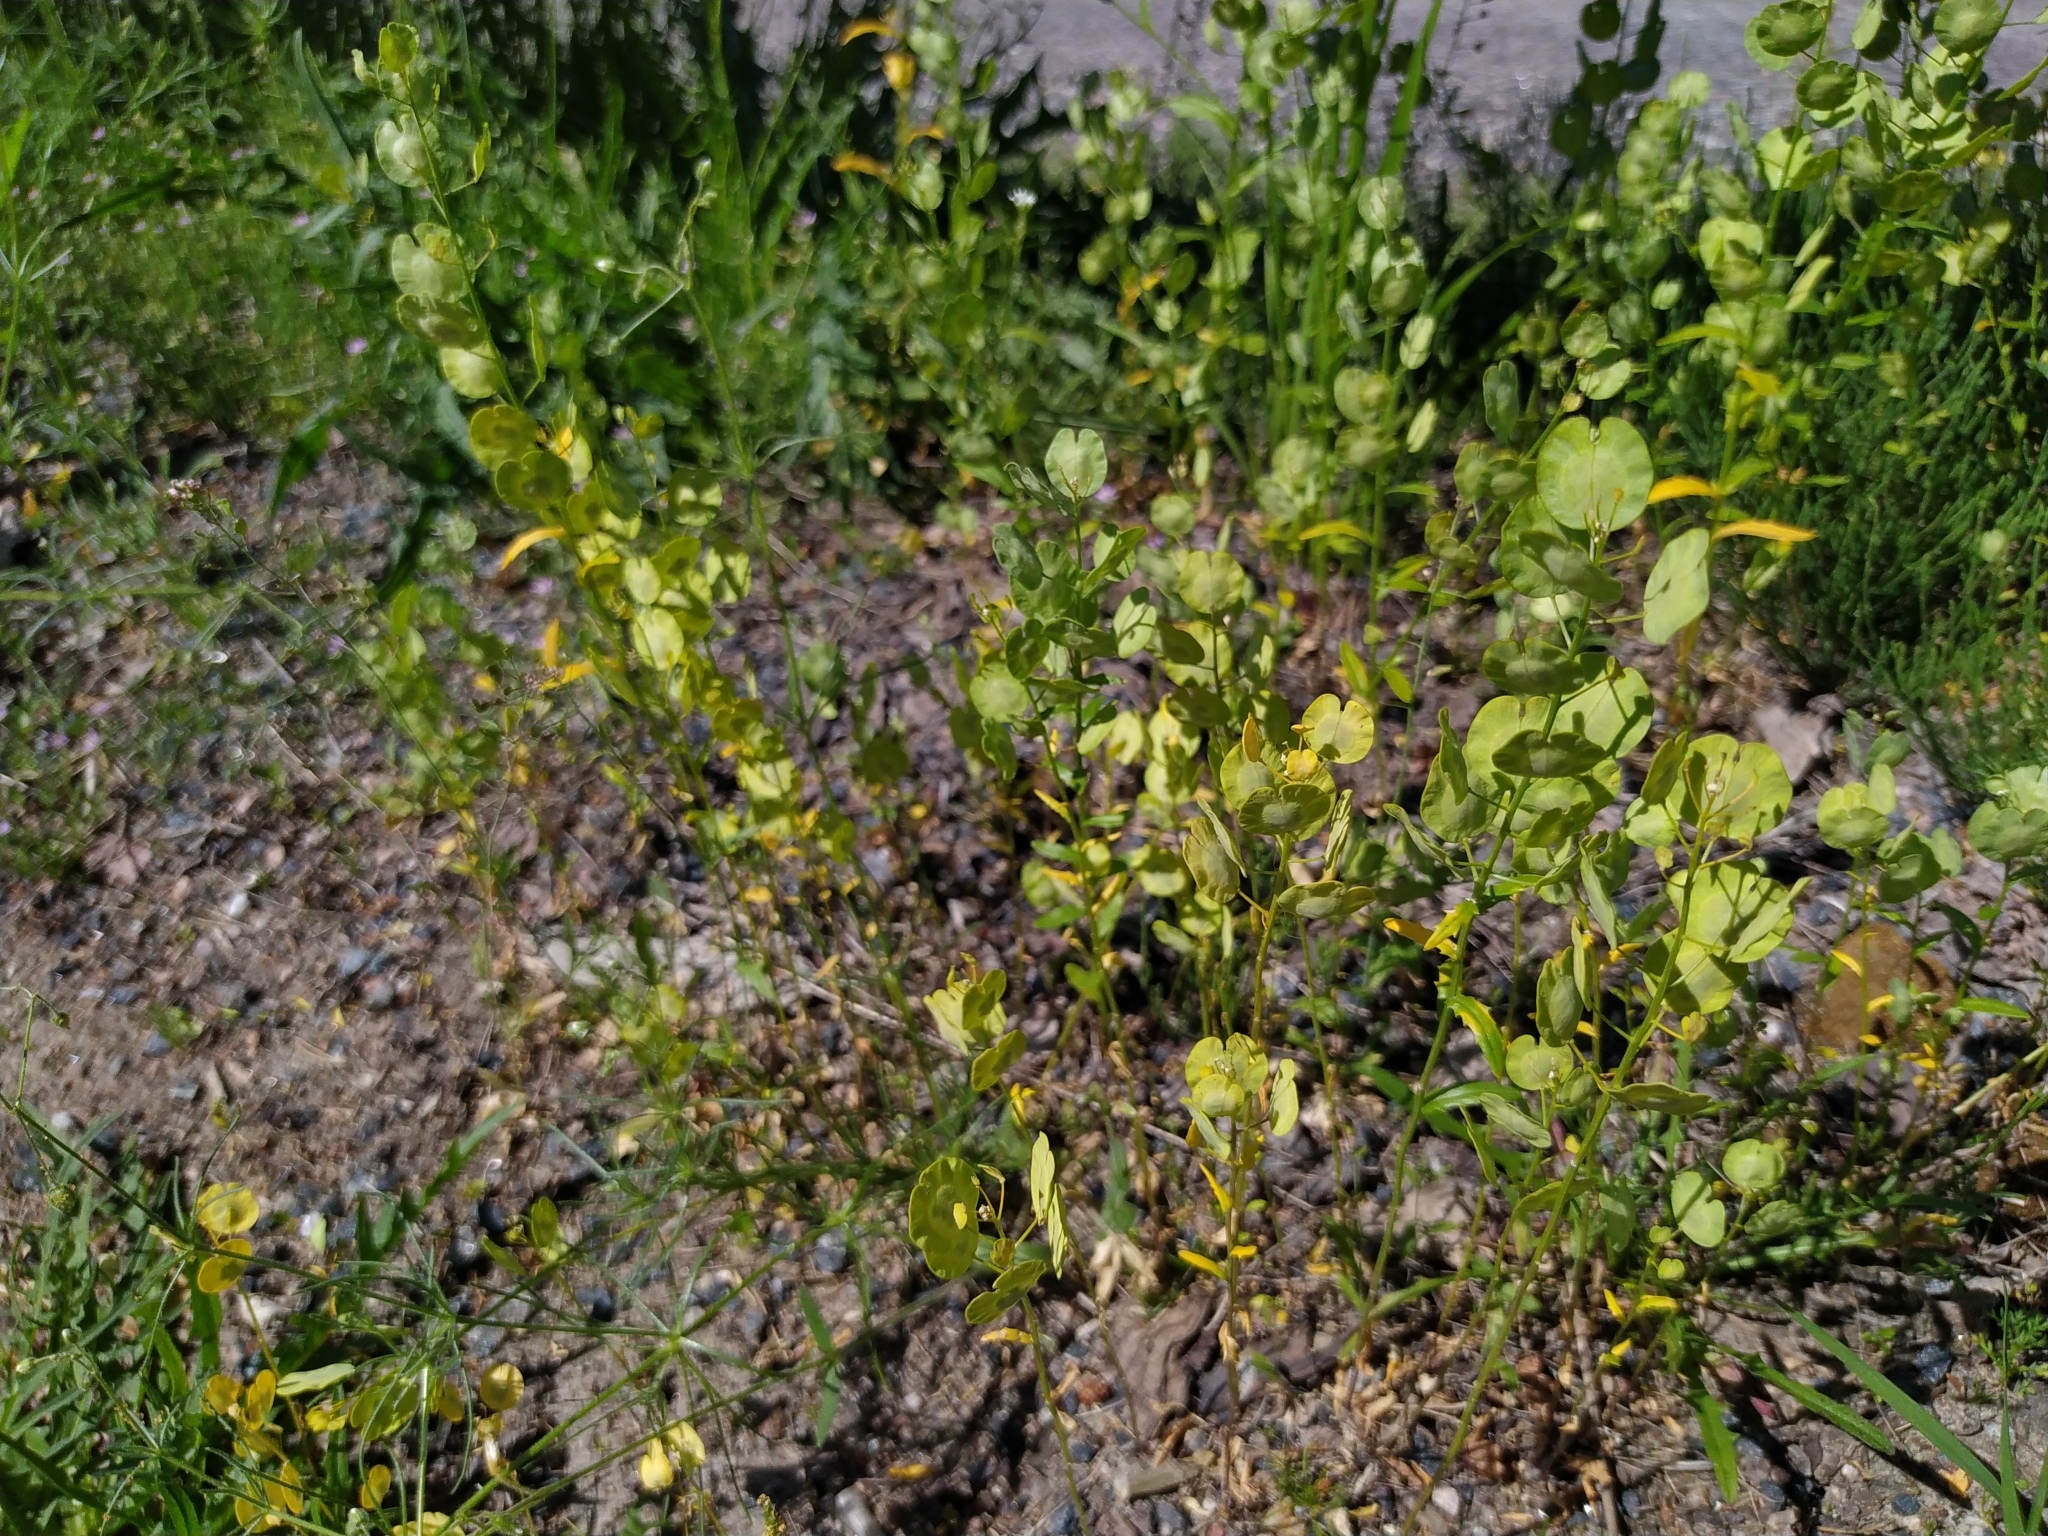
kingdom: Plantae
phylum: Tracheophyta
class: Magnoliopsida
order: Brassicales
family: Brassicaceae
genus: Thlaspi
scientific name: Thlaspi arvense
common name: Field pennycress
